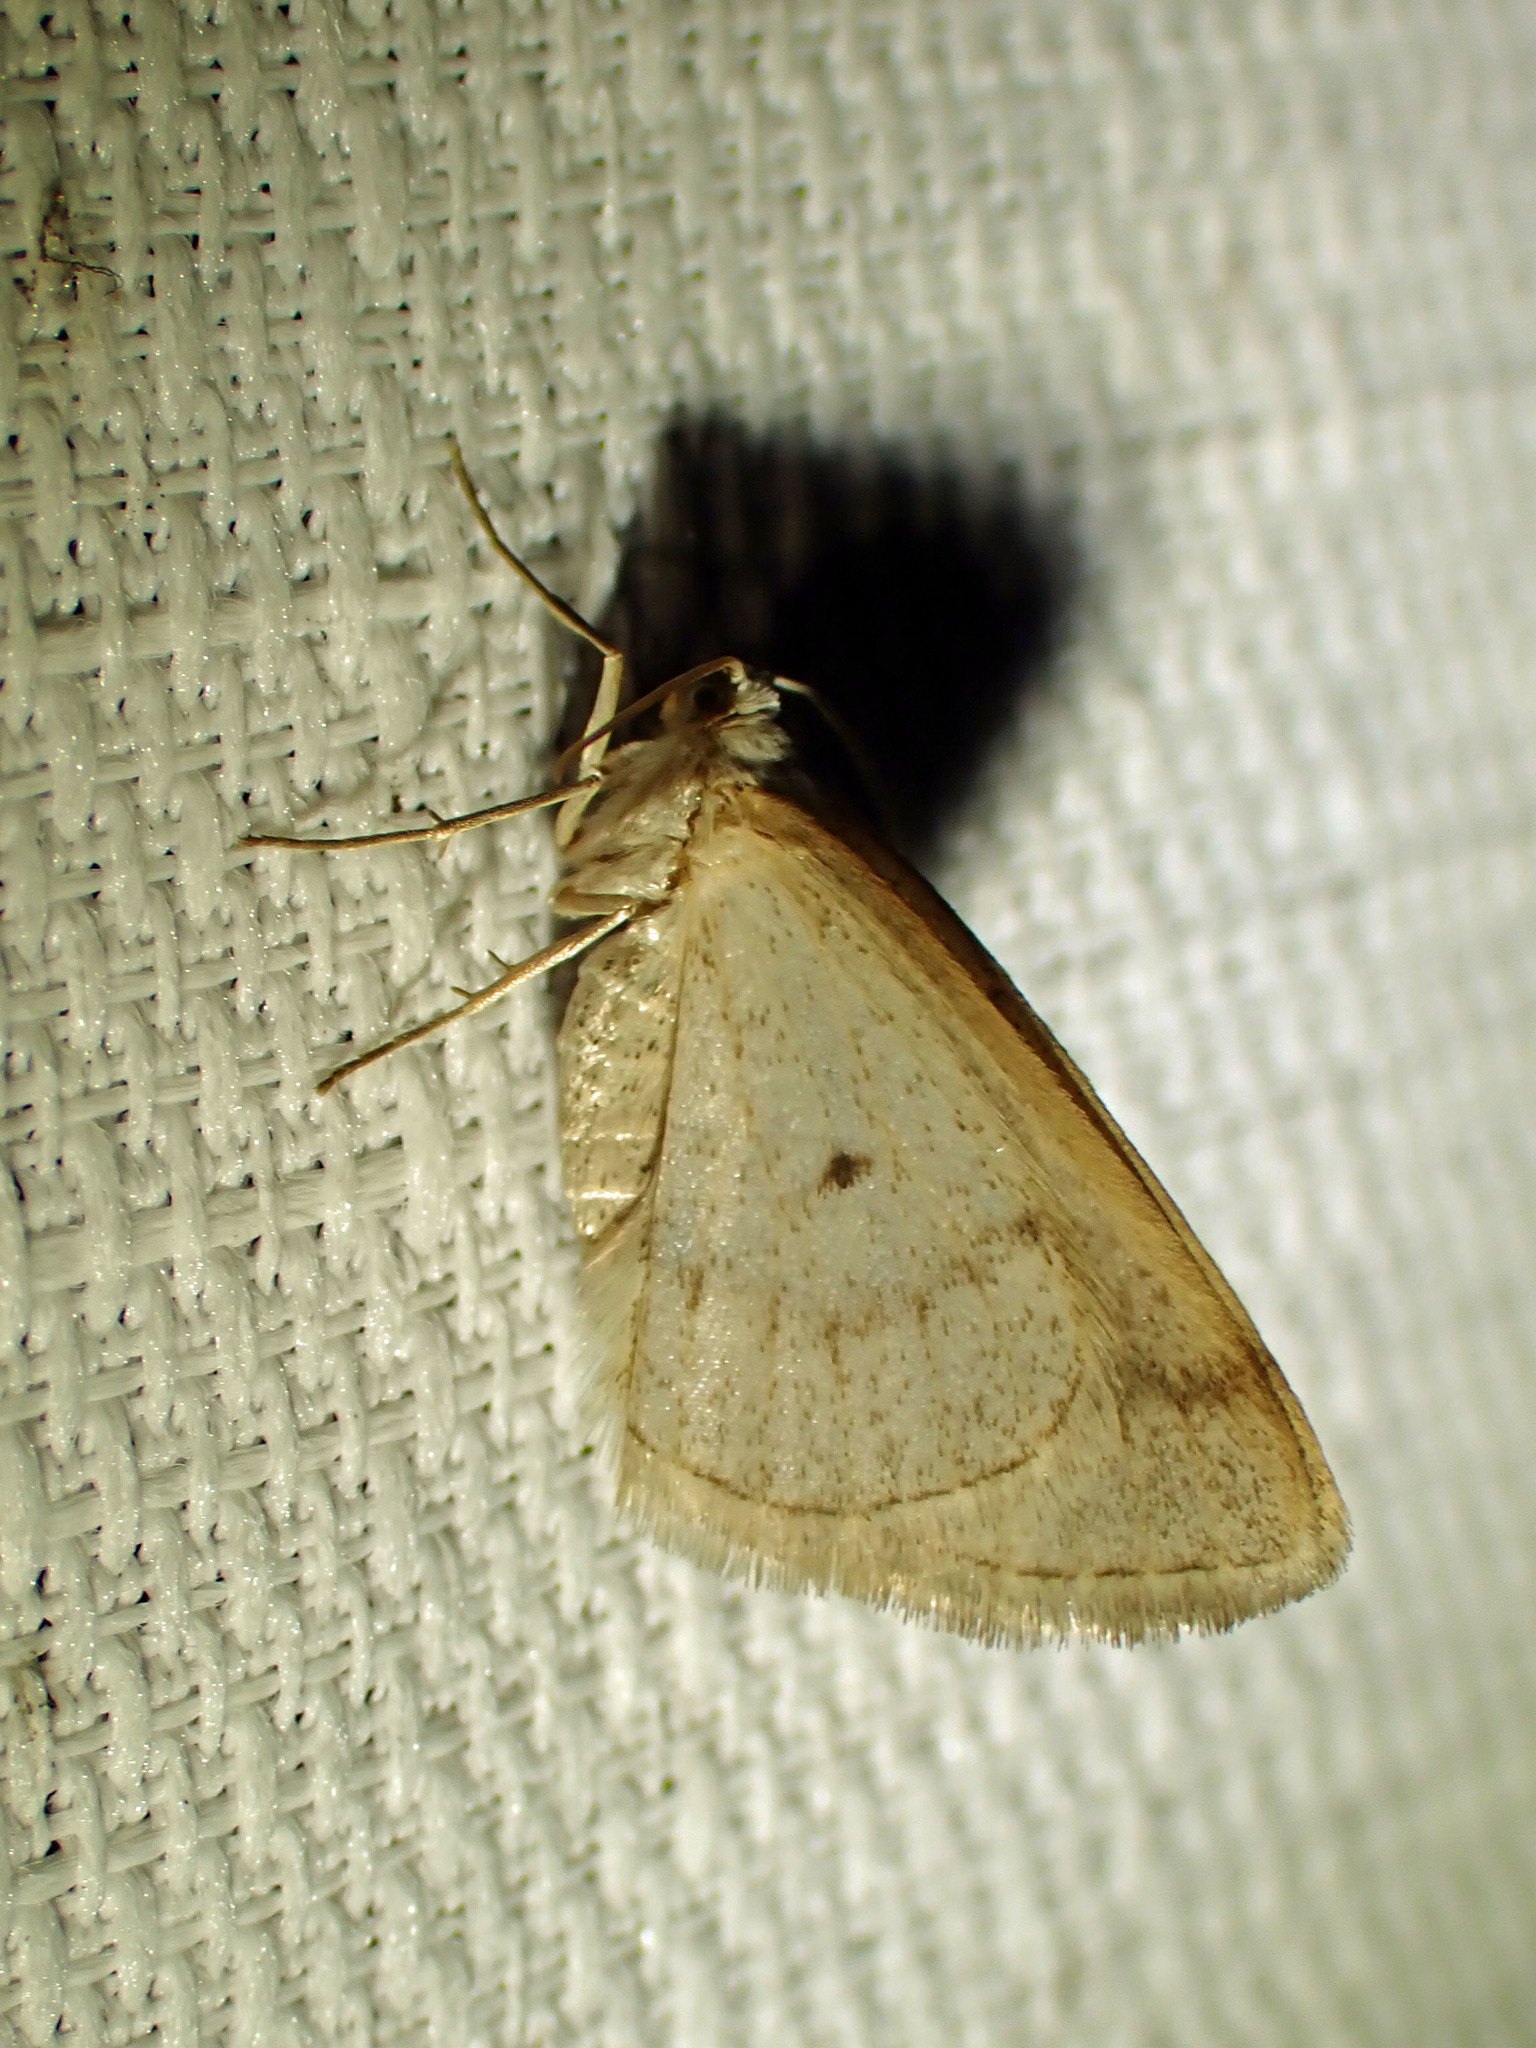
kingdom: Animalia
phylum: Arthropoda
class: Insecta
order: Lepidoptera
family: Geometridae
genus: Lomographa
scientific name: Lomographa glomeraria
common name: Gray spring moth
